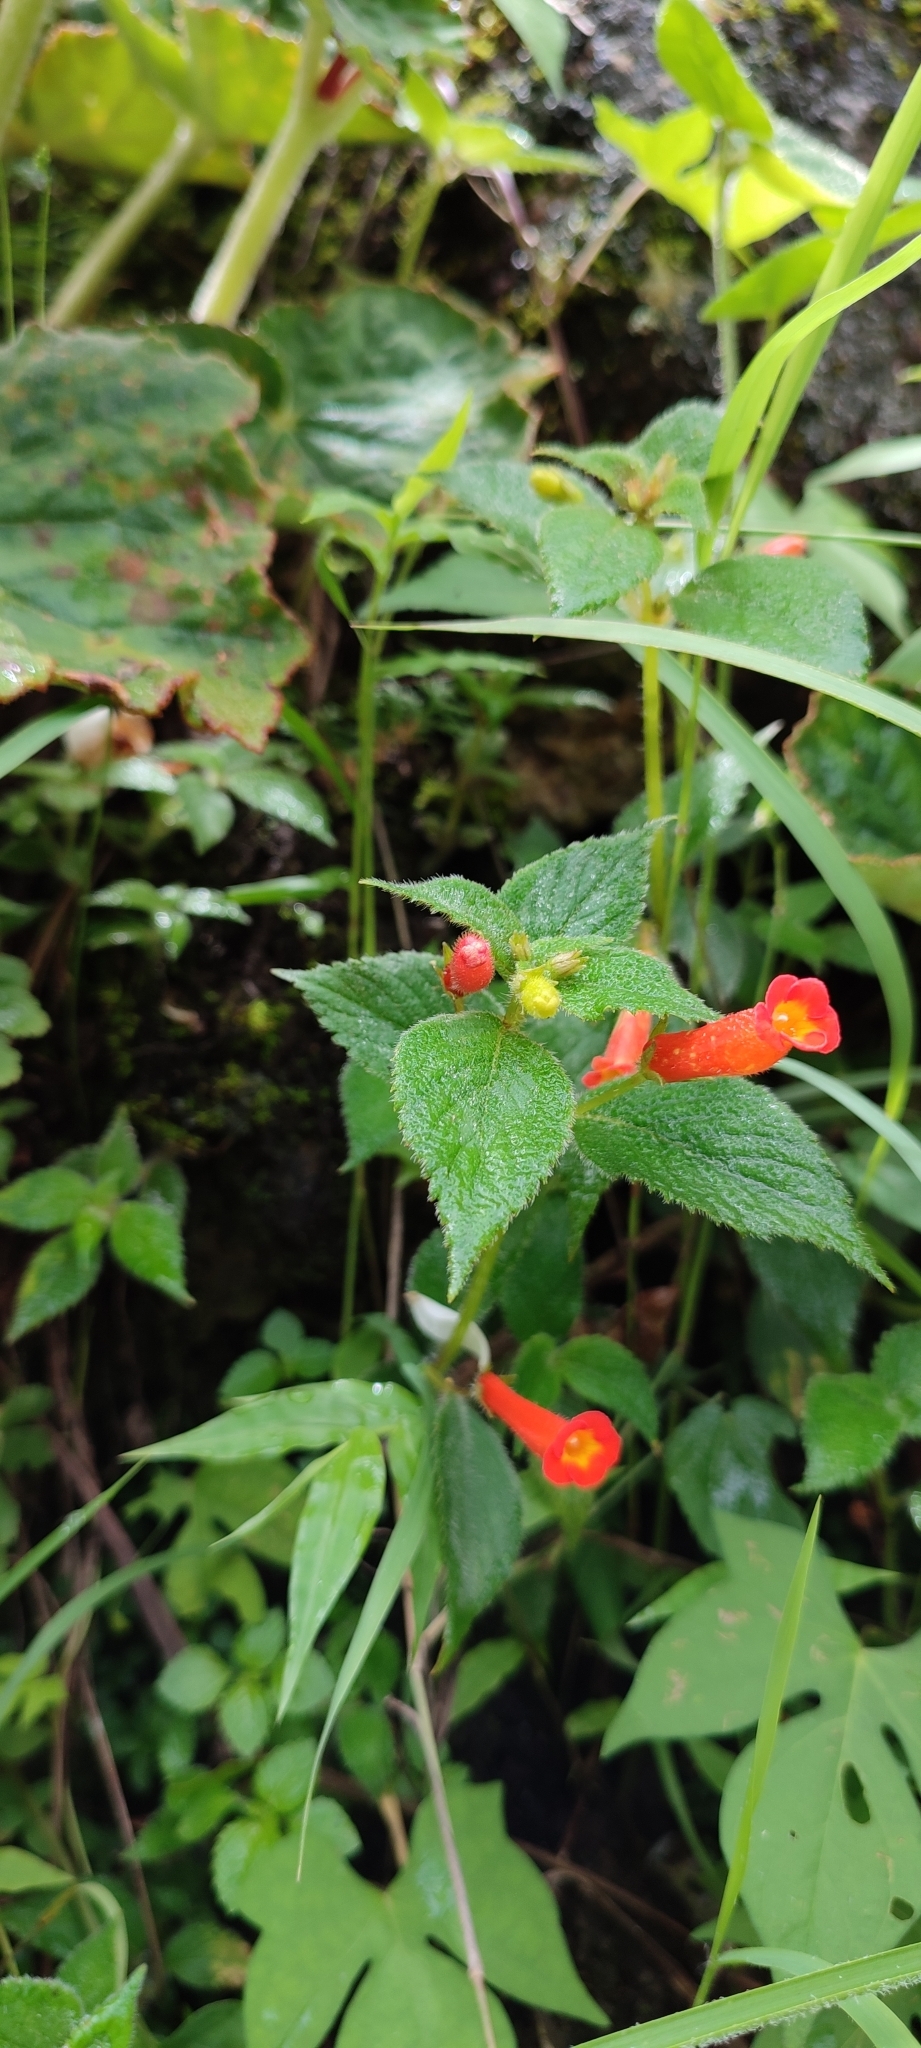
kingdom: Plantae
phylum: Tracheophyta
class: Magnoliopsida
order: Lamiales
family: Gesneriaceae
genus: Achimenes
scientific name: Achimenes heterophylla
